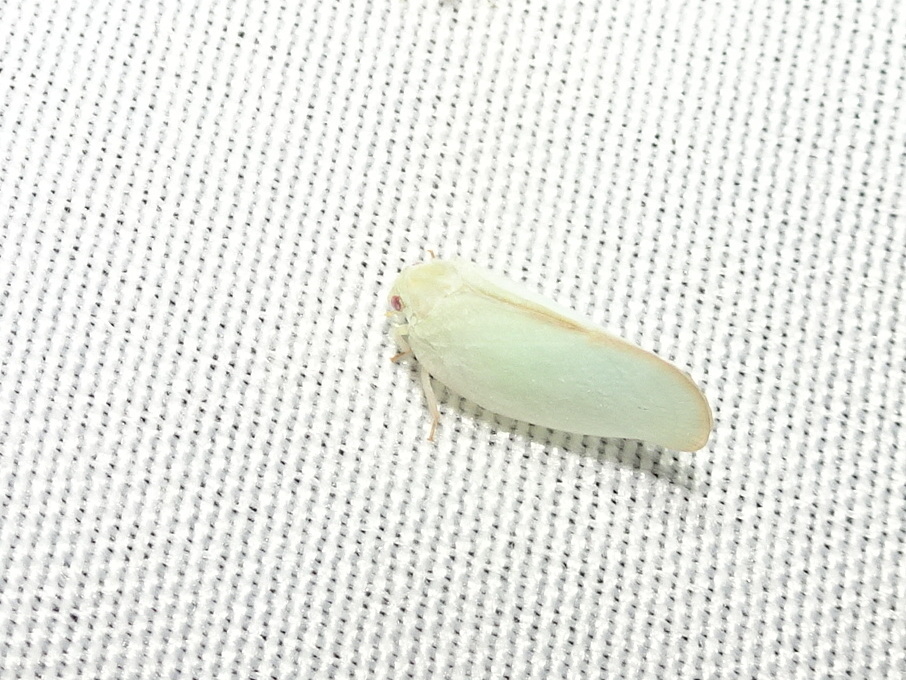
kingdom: Animalia
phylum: Arthropoda
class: Insecta
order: Hemiptera
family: Flatidae
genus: Ormenoides
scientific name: Ormenoides venusta
